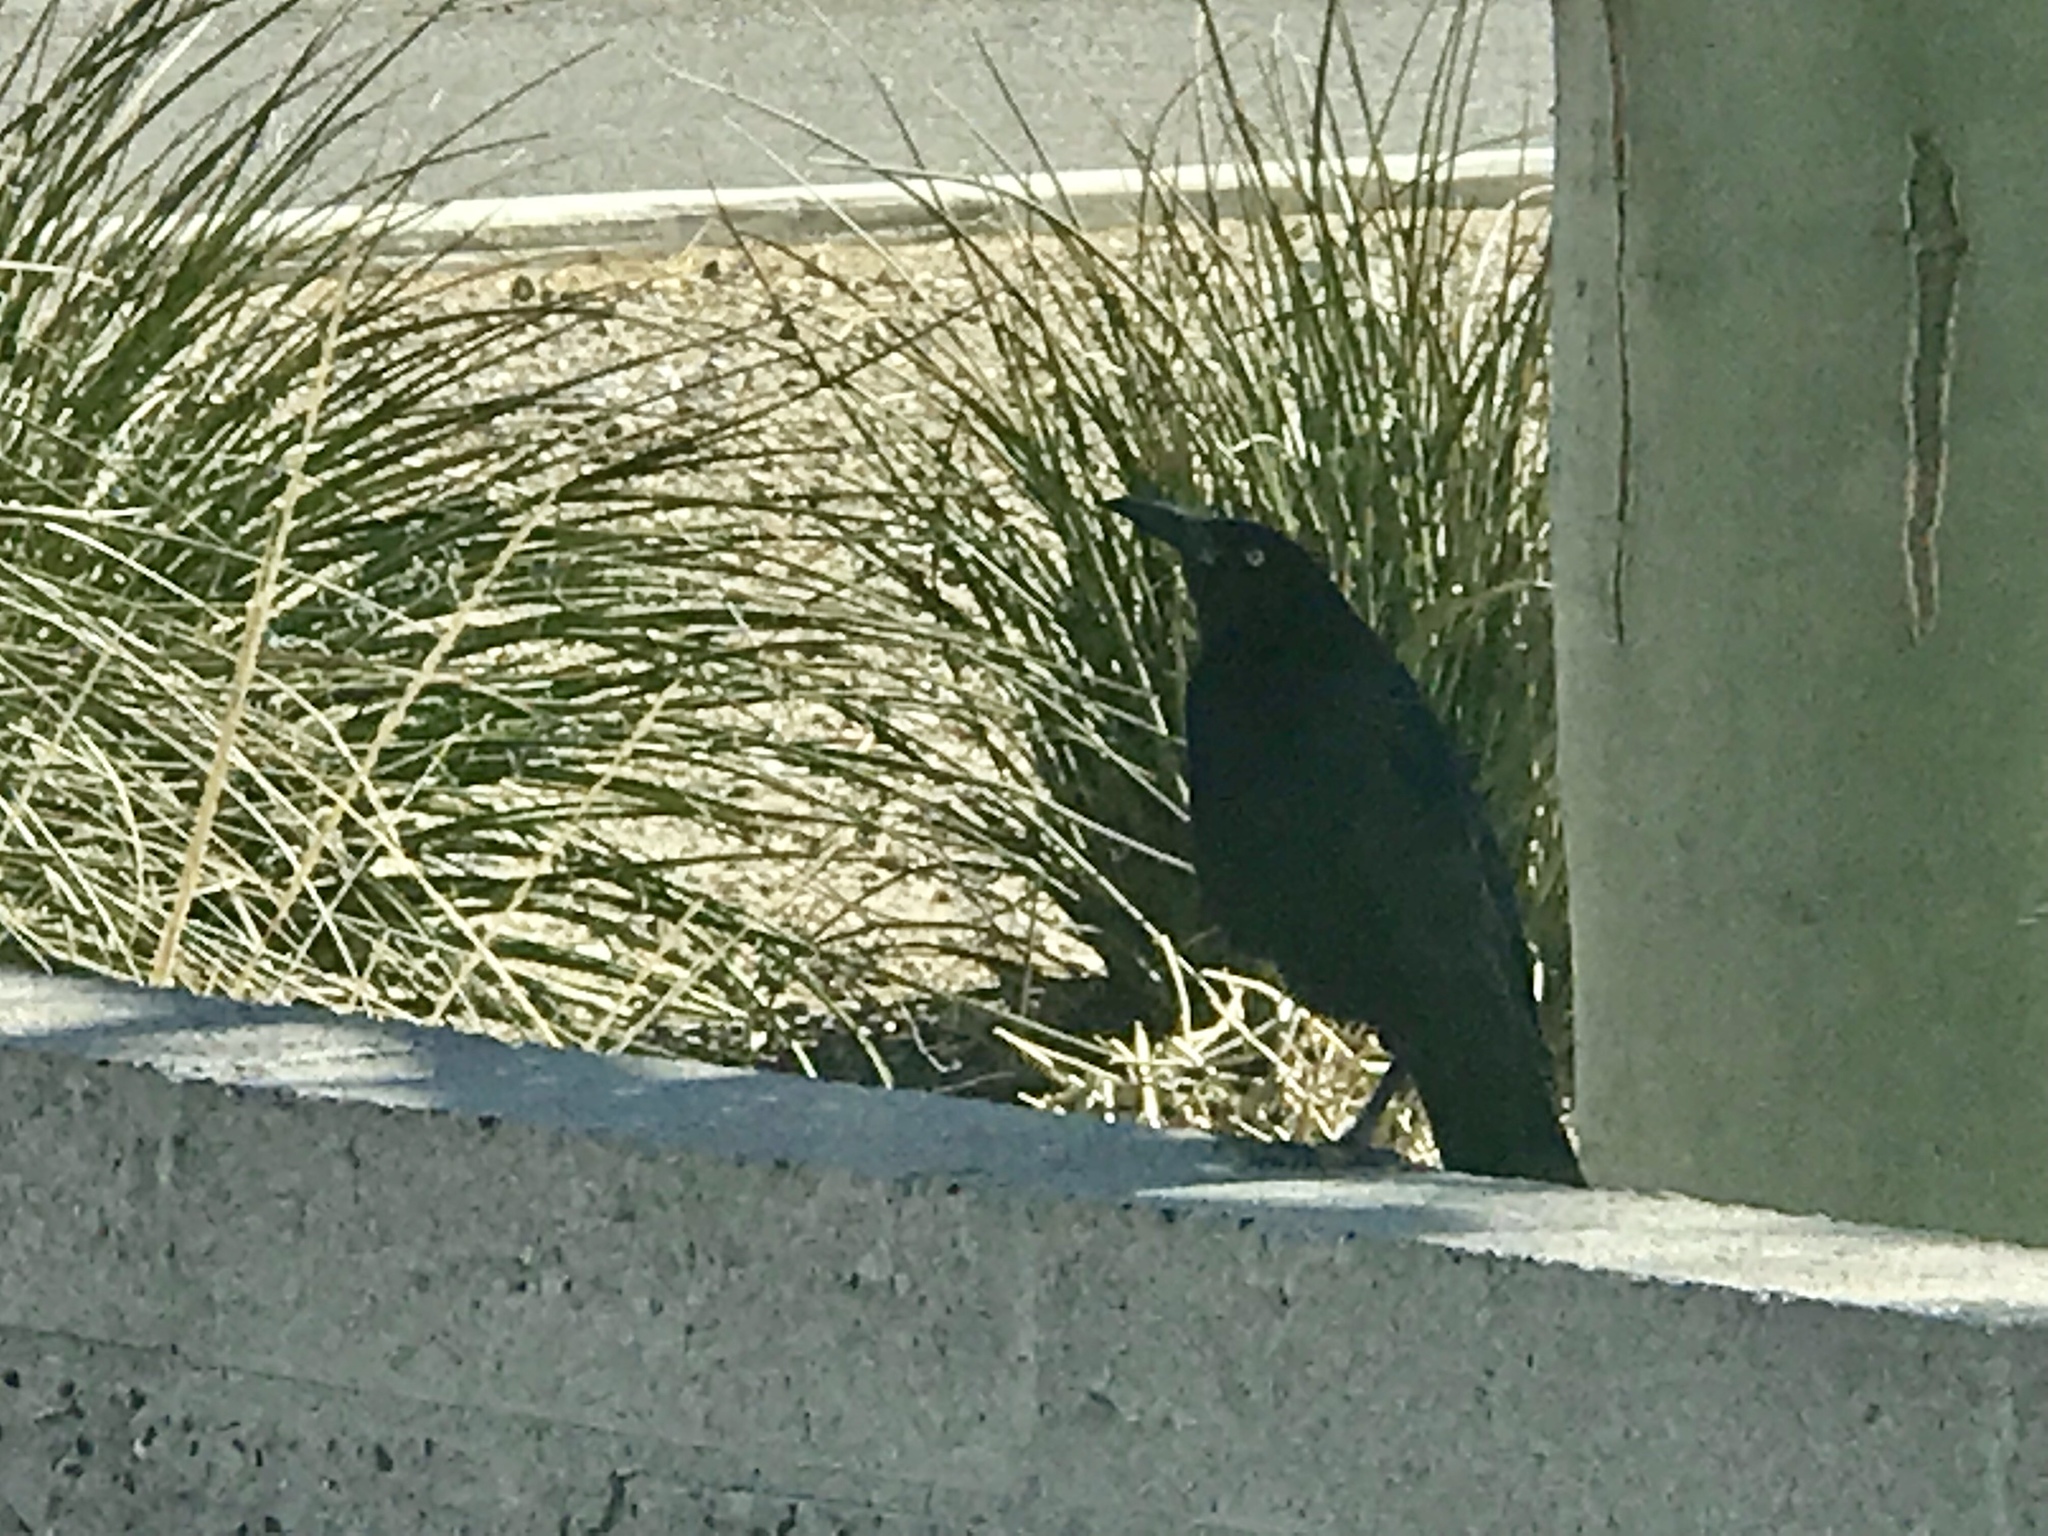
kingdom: Animalia
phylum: Chordata
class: Aves
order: Passeriformes
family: Icteridae
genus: Quiscalus
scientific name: Quiscalus mexicanus
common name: Great-tailed grackle
